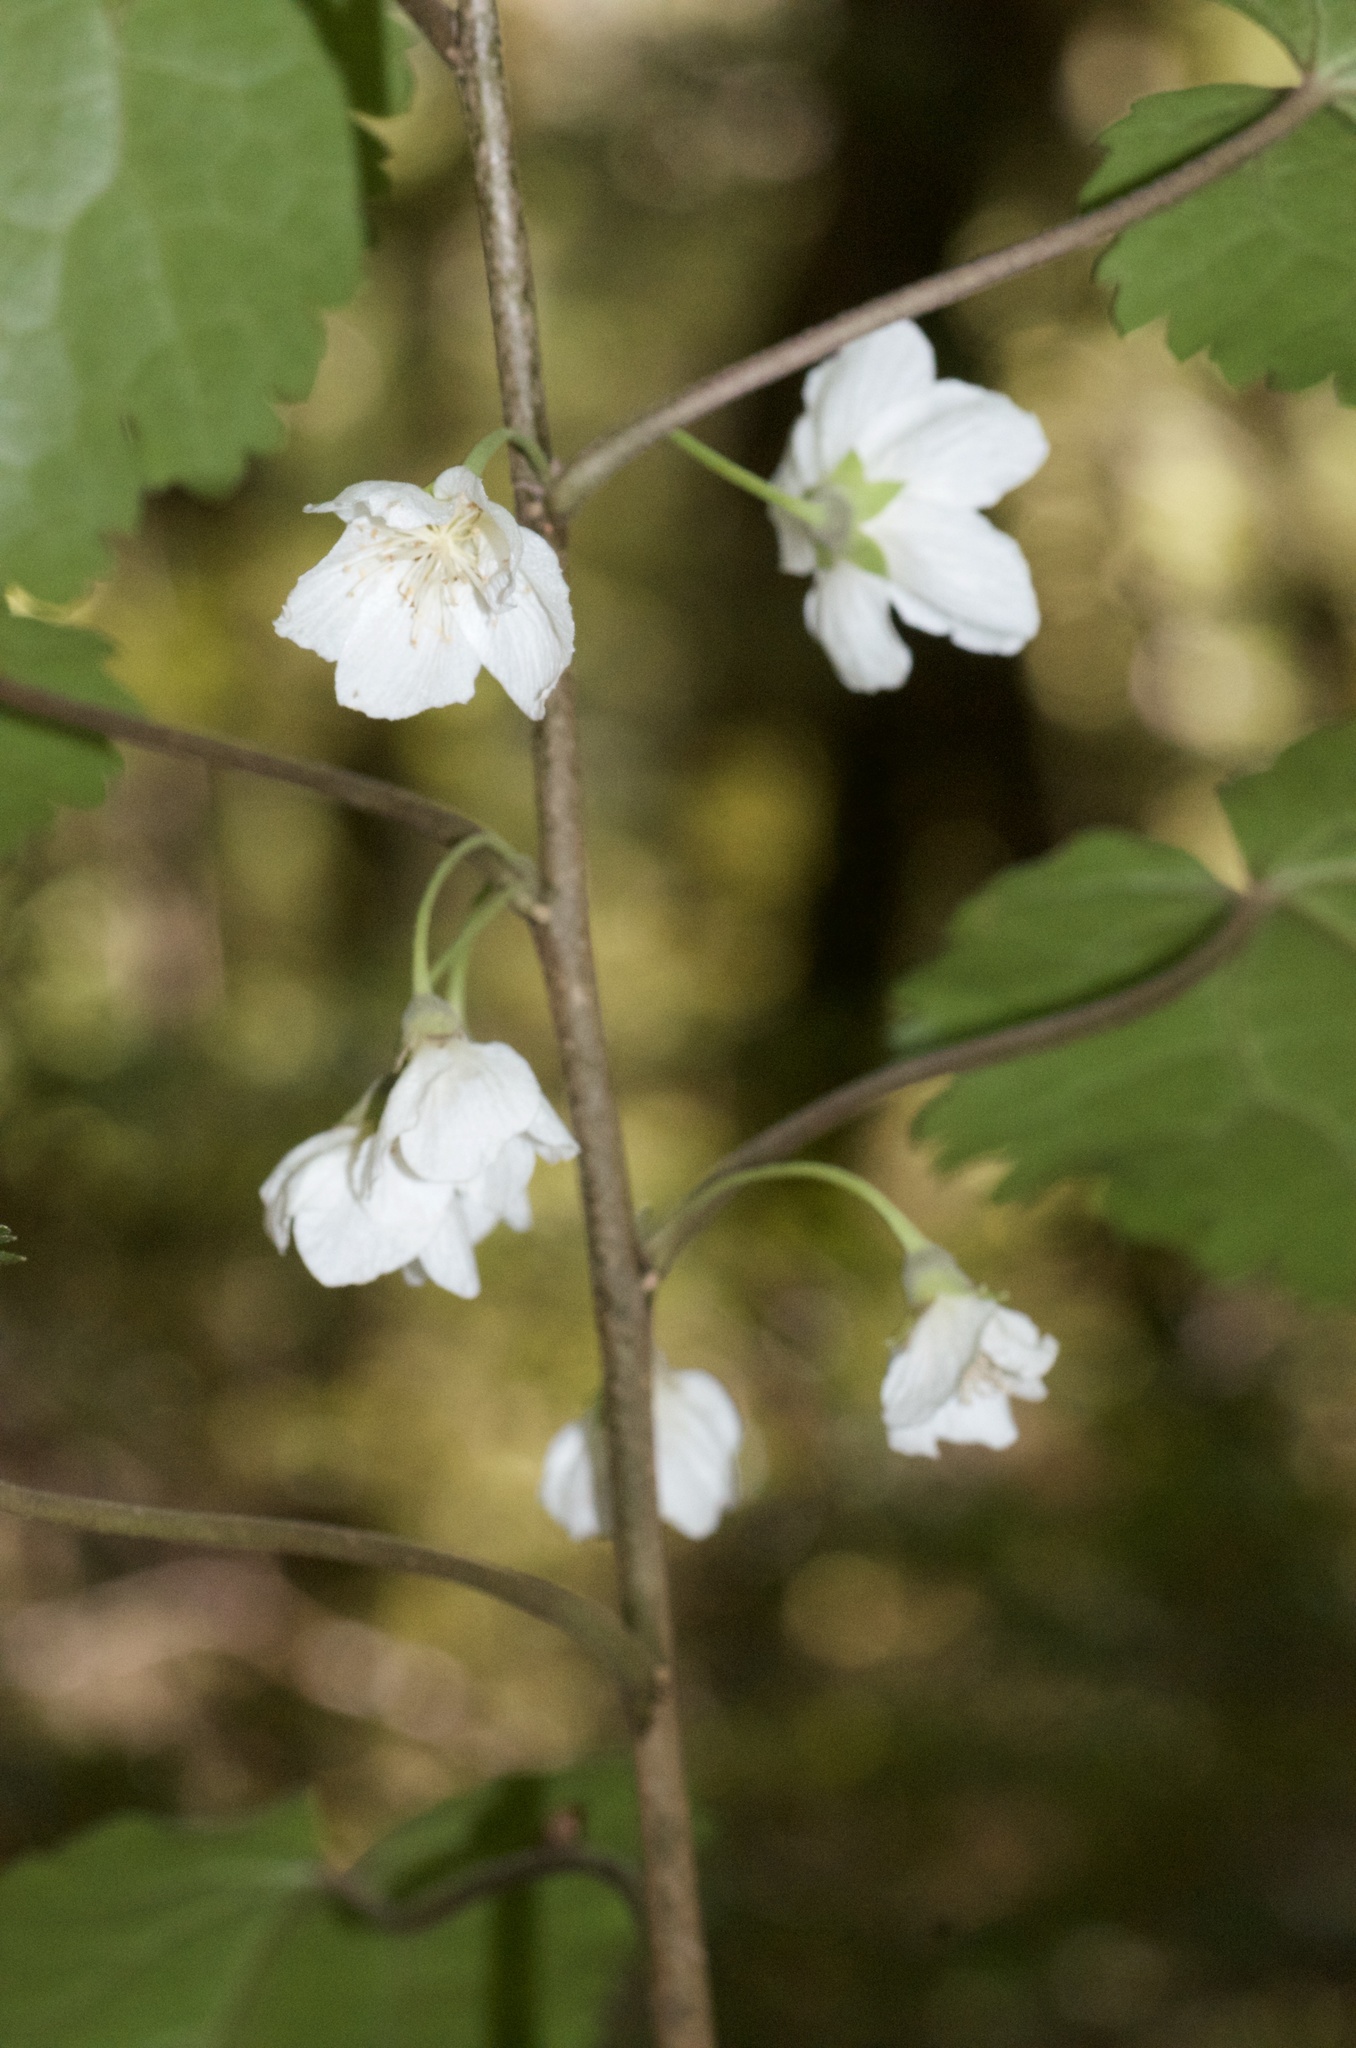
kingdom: Plantae
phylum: Tracheophyta
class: Magnoliopsida
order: Malvales
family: Malvaceae
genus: Hoheria
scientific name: Hoheria glabrata
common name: Mountain-ribbon
